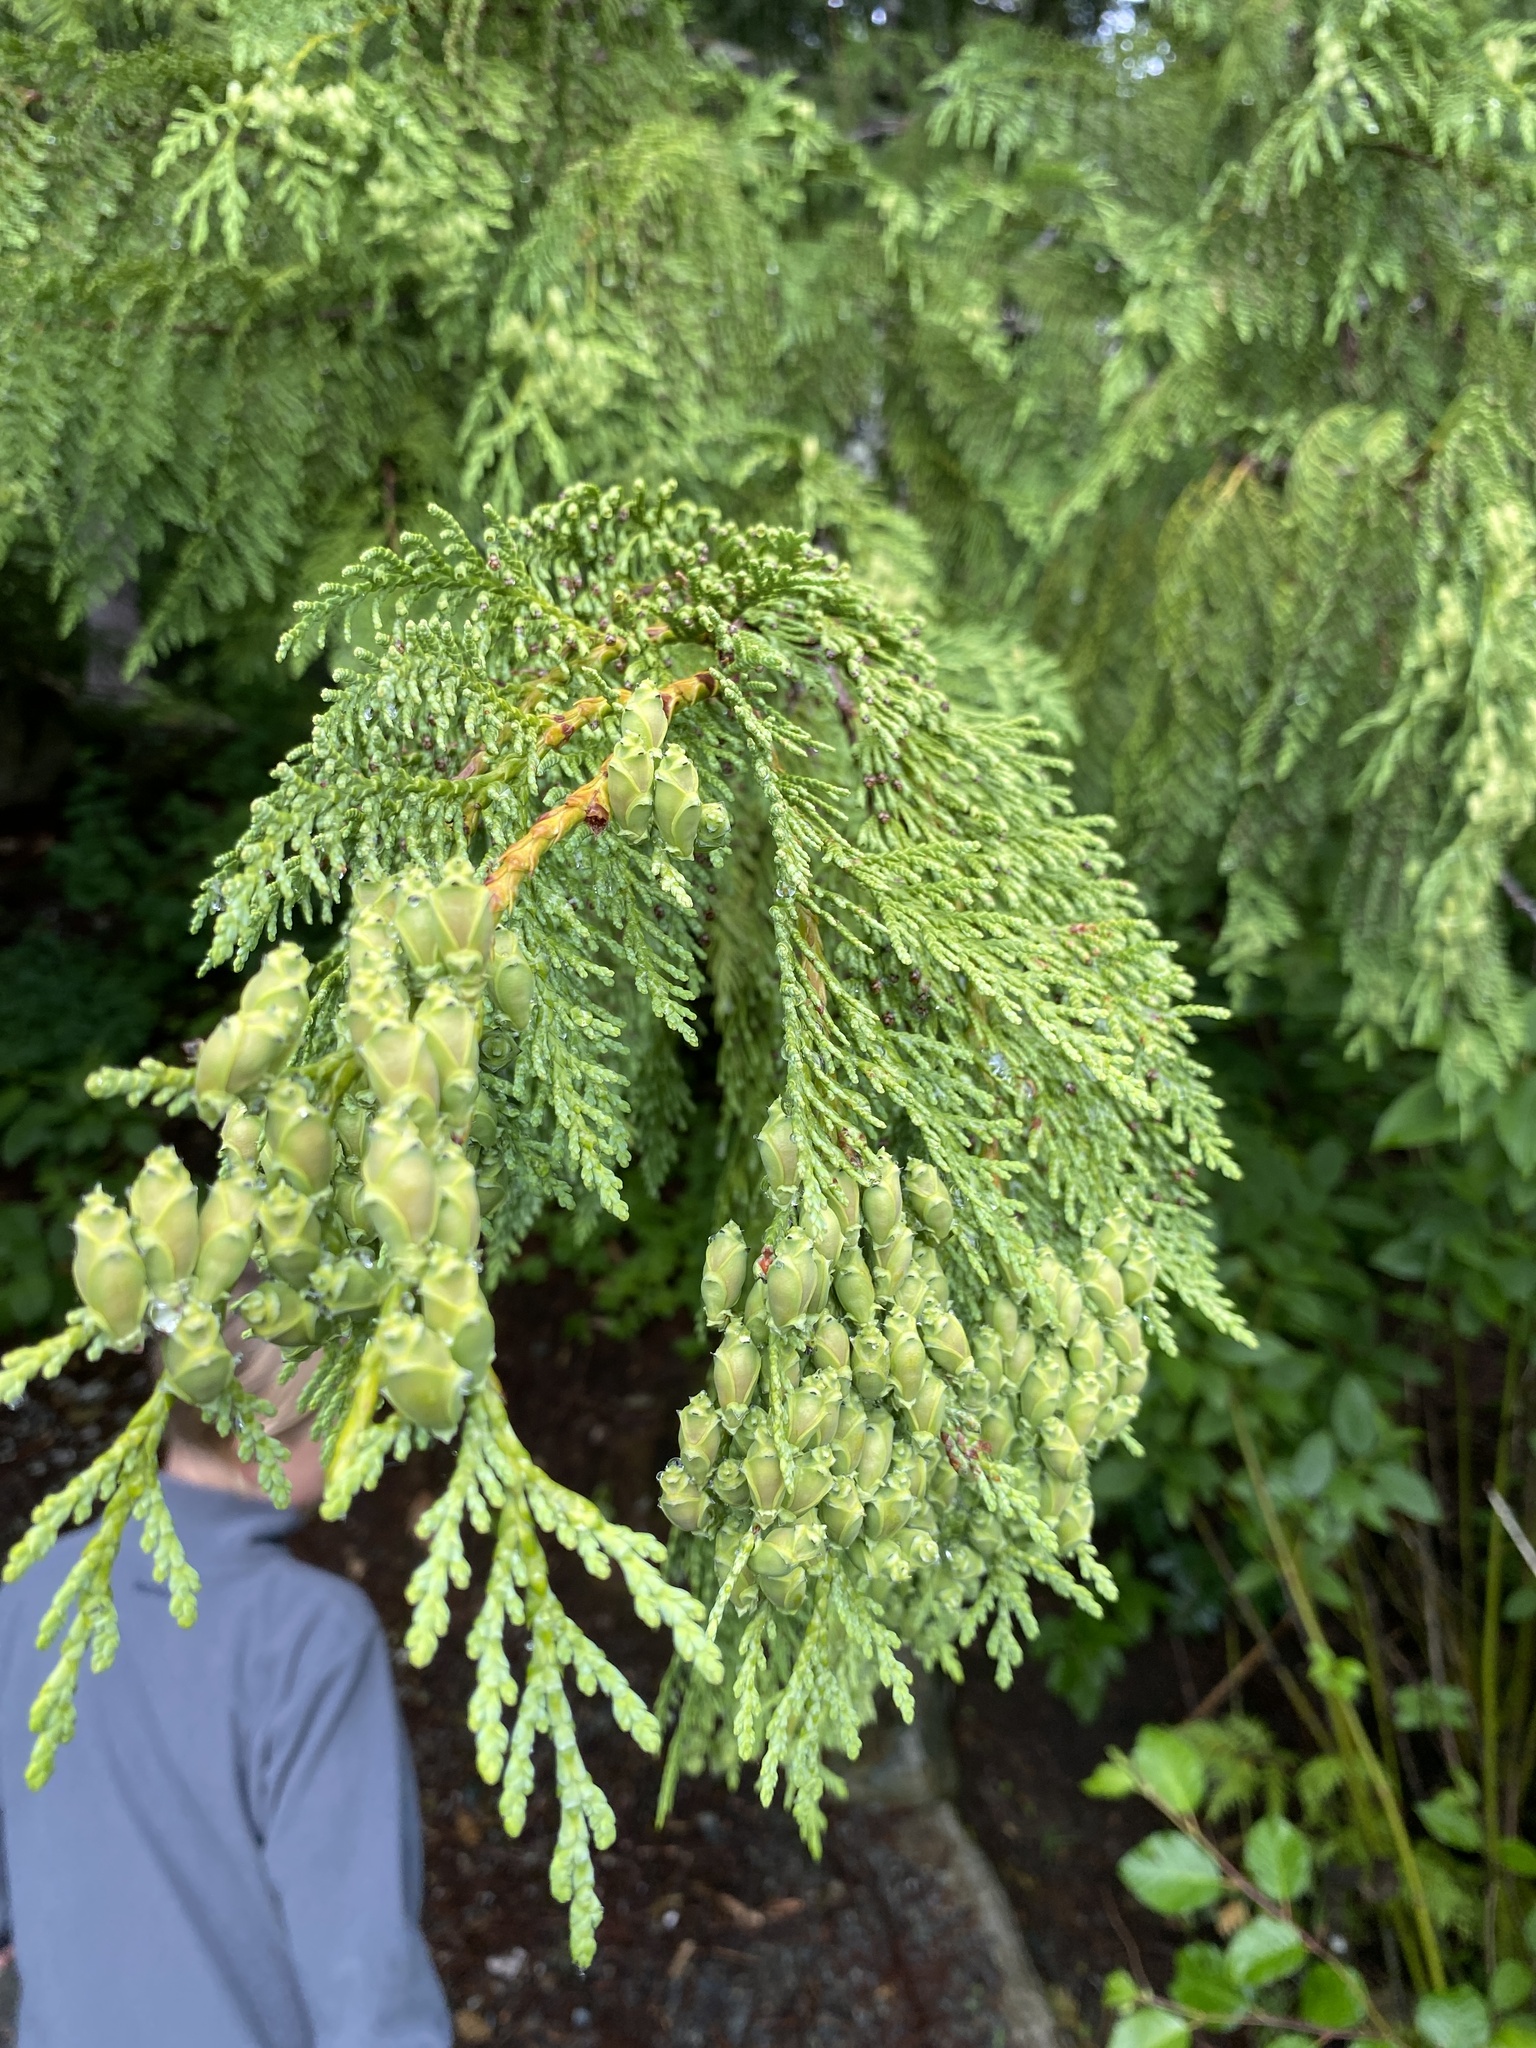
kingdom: Plantae
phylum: Tracheophyta
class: Pinopsida
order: Pinales
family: Cupressaceae
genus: Thuja
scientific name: Thuja plicata
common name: Western red-cedar
